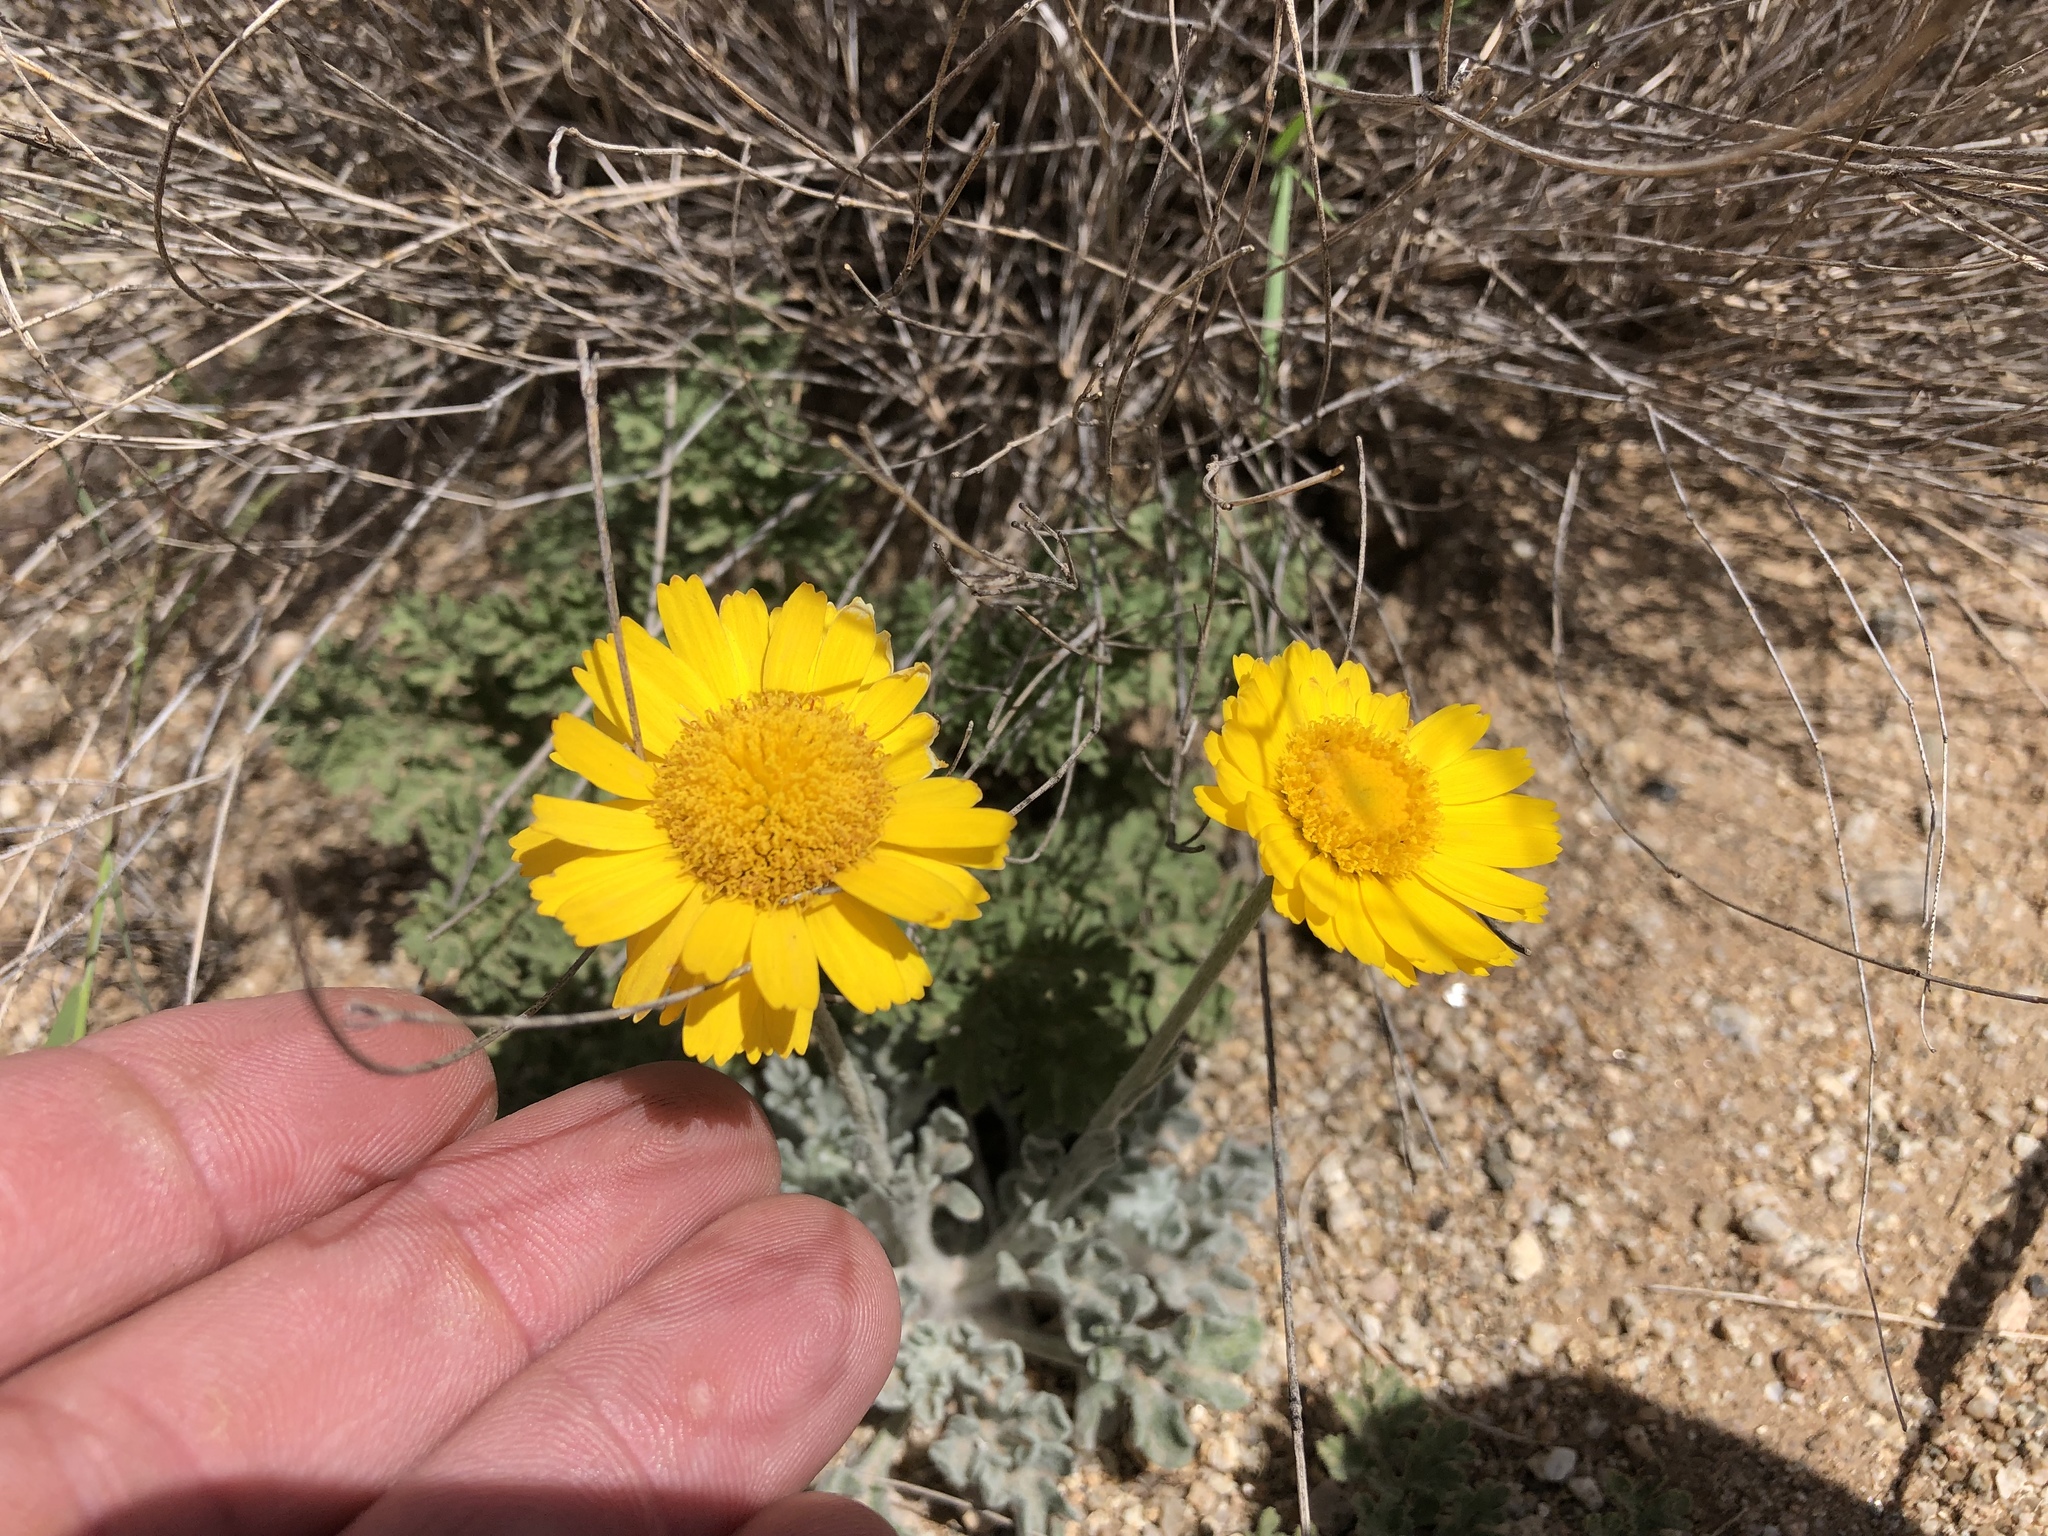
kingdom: Plantae
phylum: Tracheophyta
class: Magnoliopsida
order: Asterales
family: Asteraceae
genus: Baileya
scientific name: Baileya multiradiata
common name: Desert-marigold
